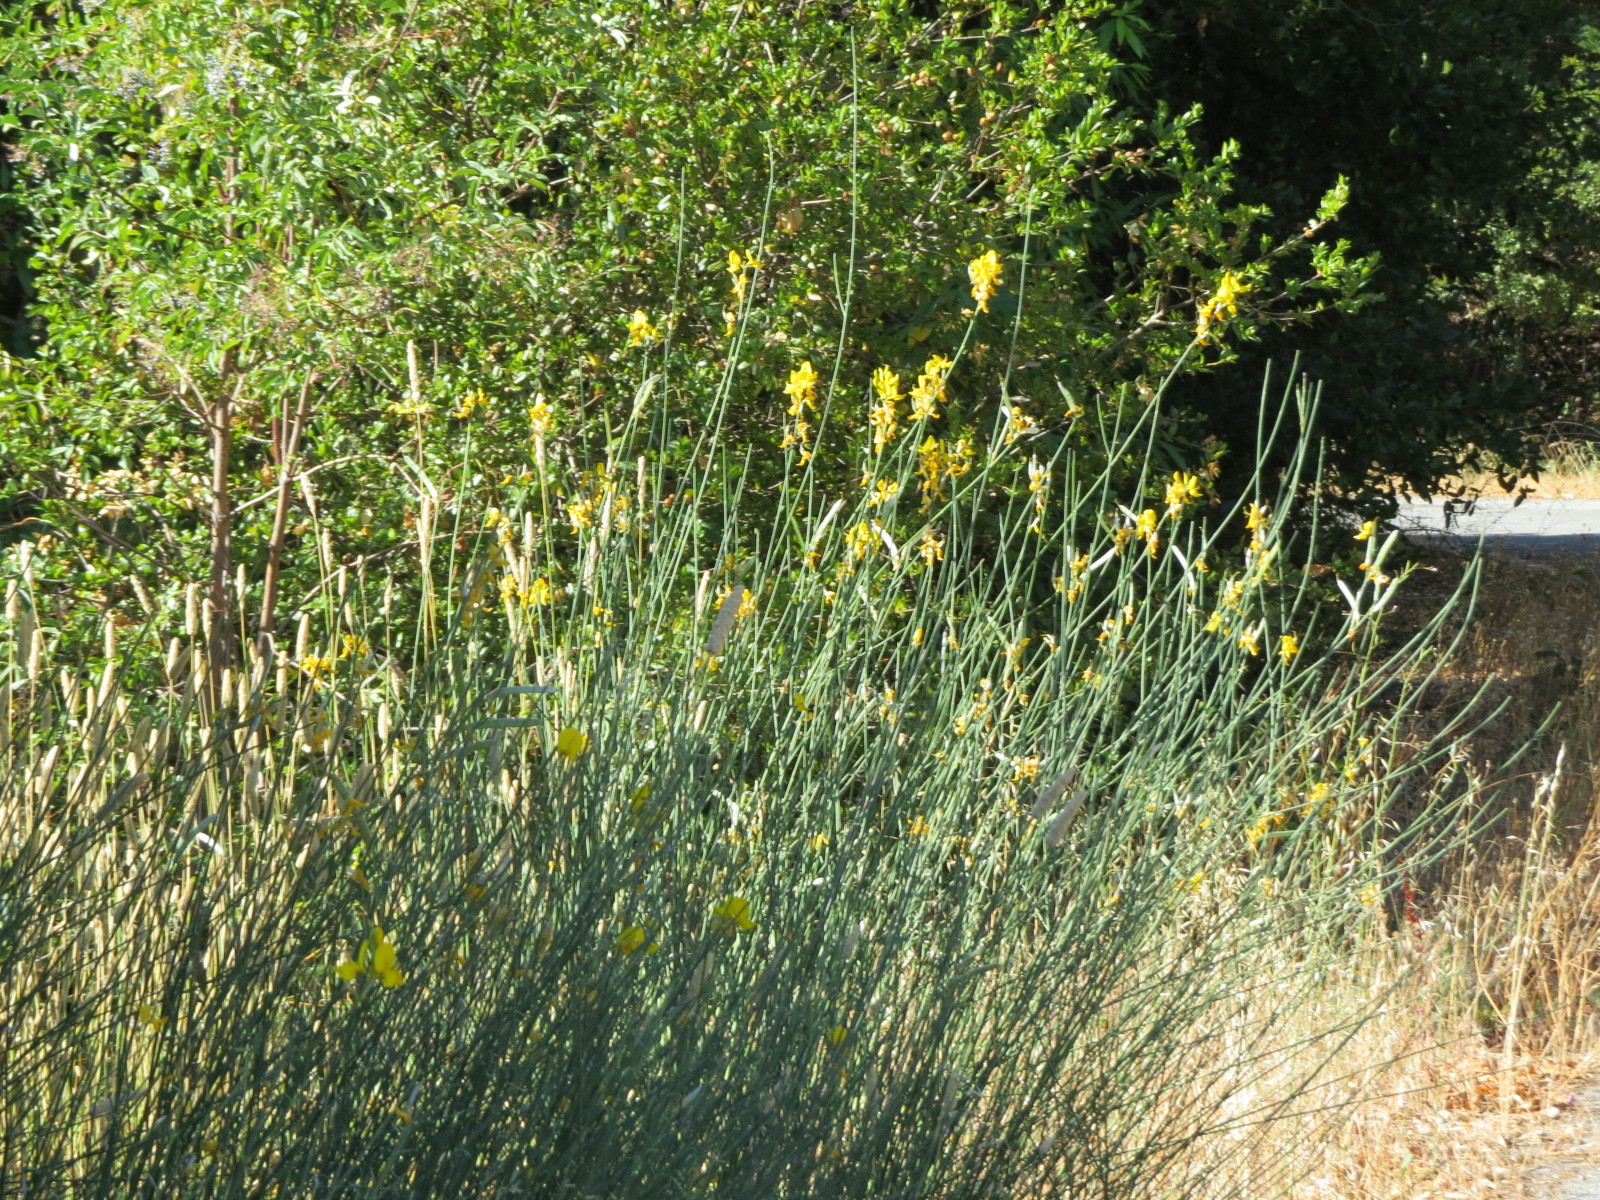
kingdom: Plantae
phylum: Tracheophyta
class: Magnoliopsida
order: Fabales
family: Fabaceae
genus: Spartium
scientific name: Spartium junceum
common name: Spanish broom
